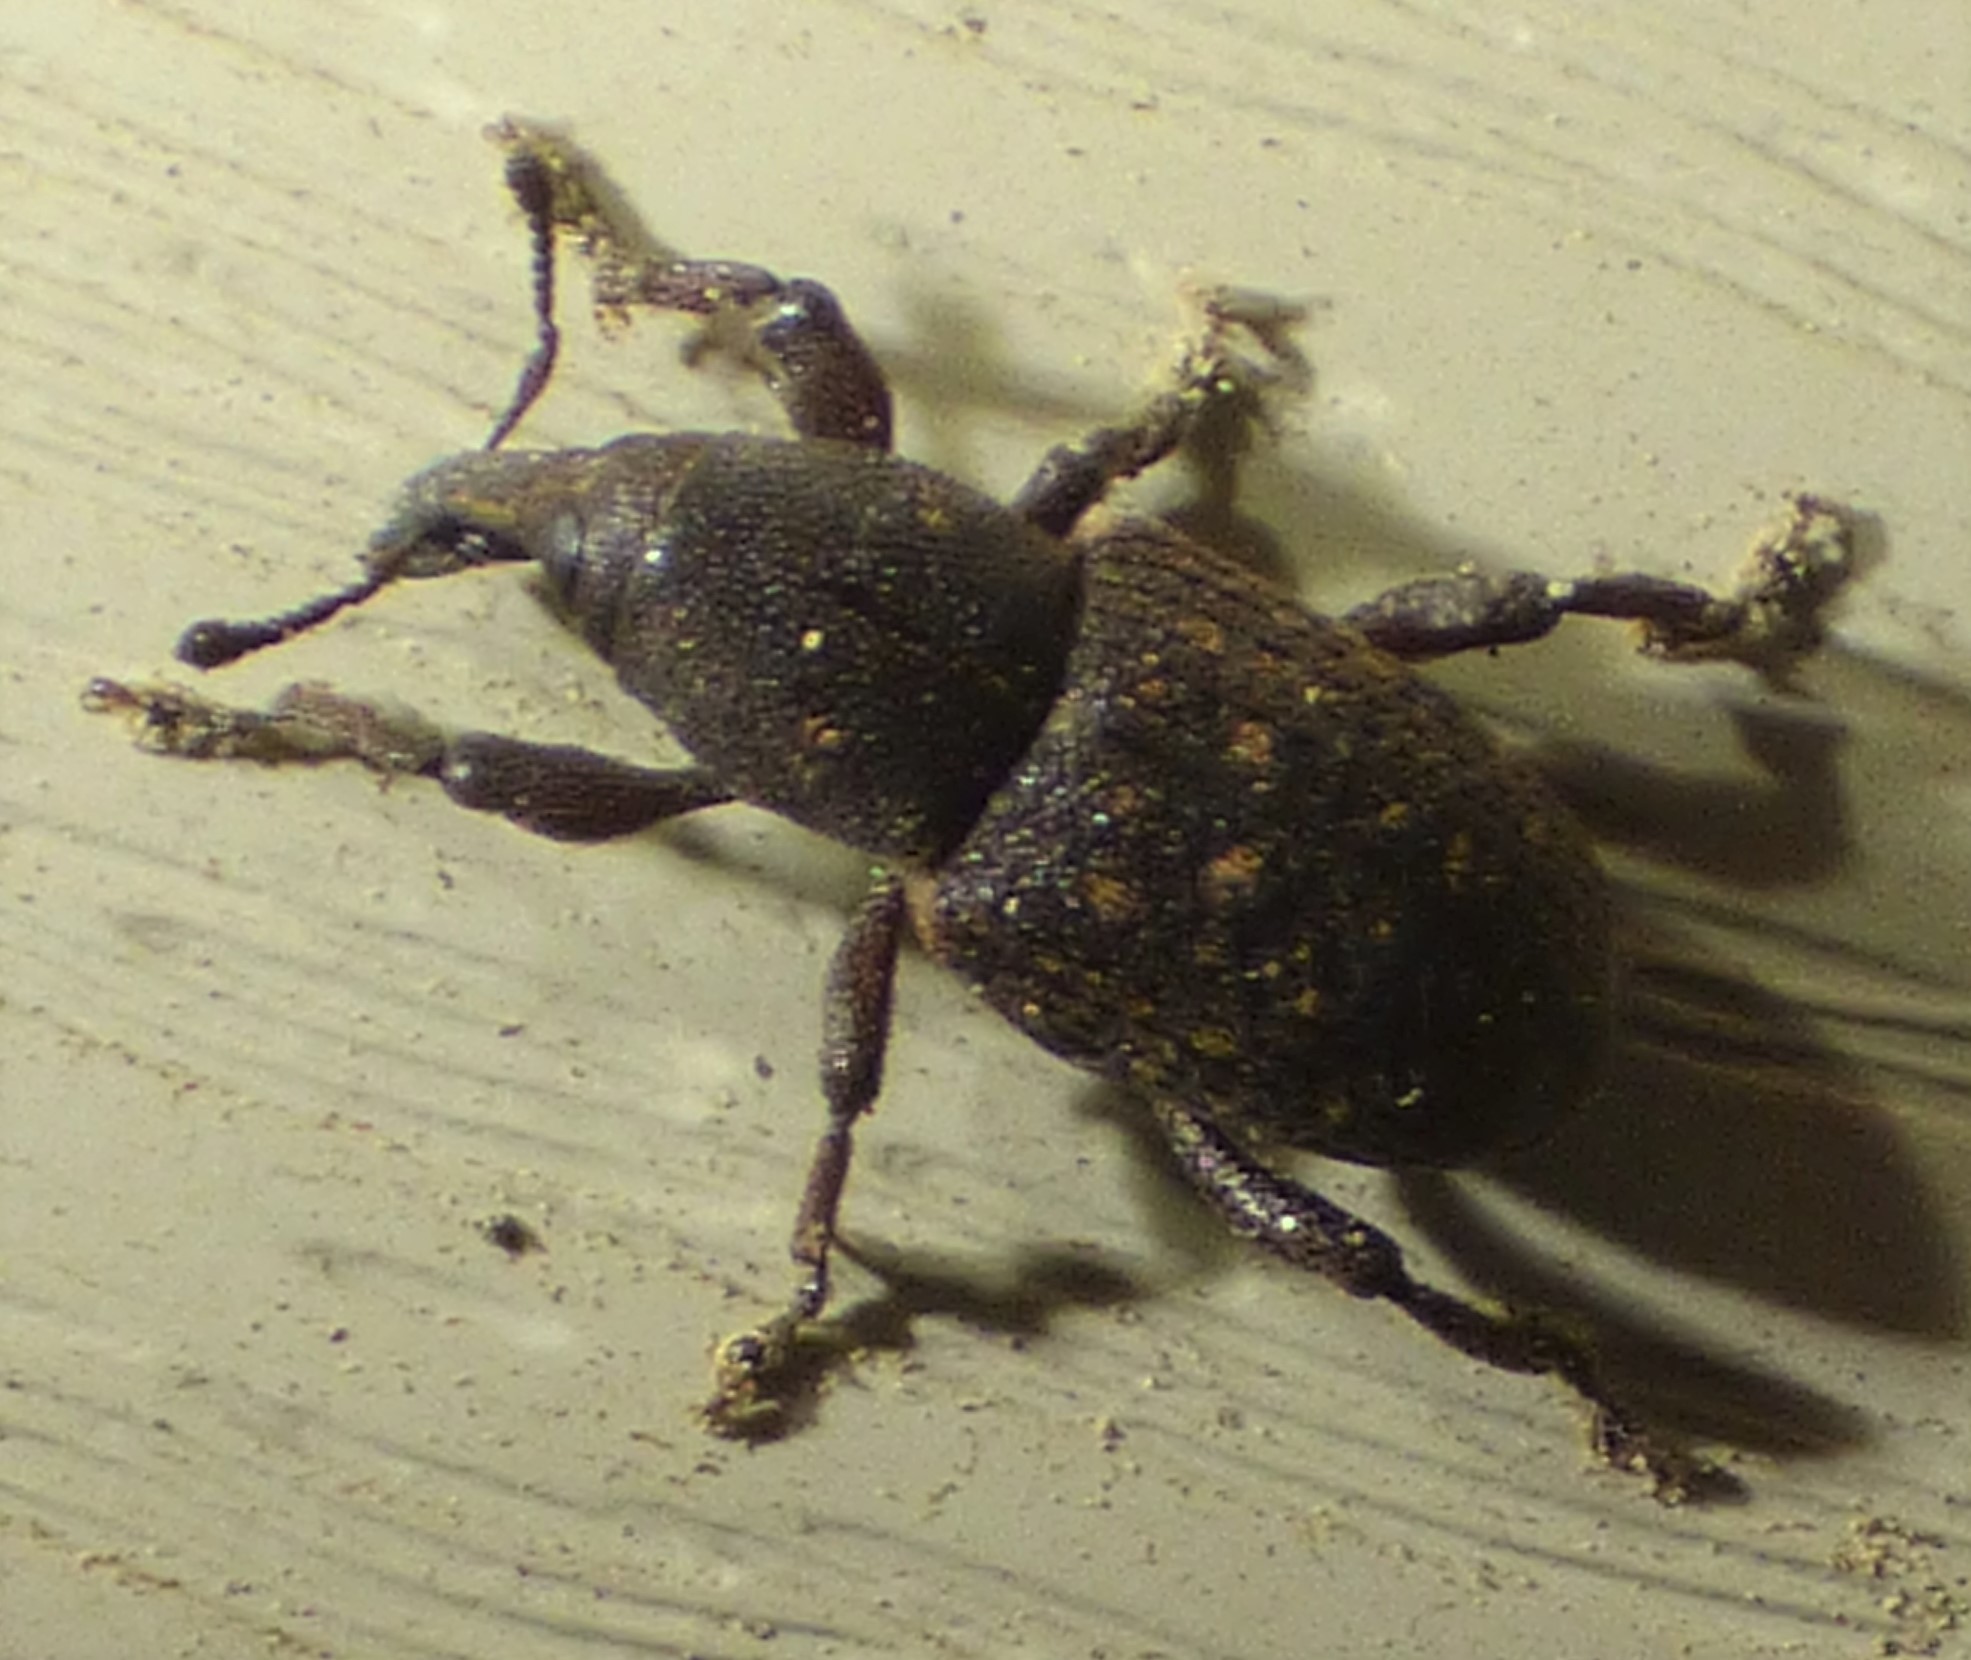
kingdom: Animalia
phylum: Arthropoda
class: Insecta
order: Coleoptera
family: Curculionidae
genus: Pachylobius
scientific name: Pachylobius picivorus
